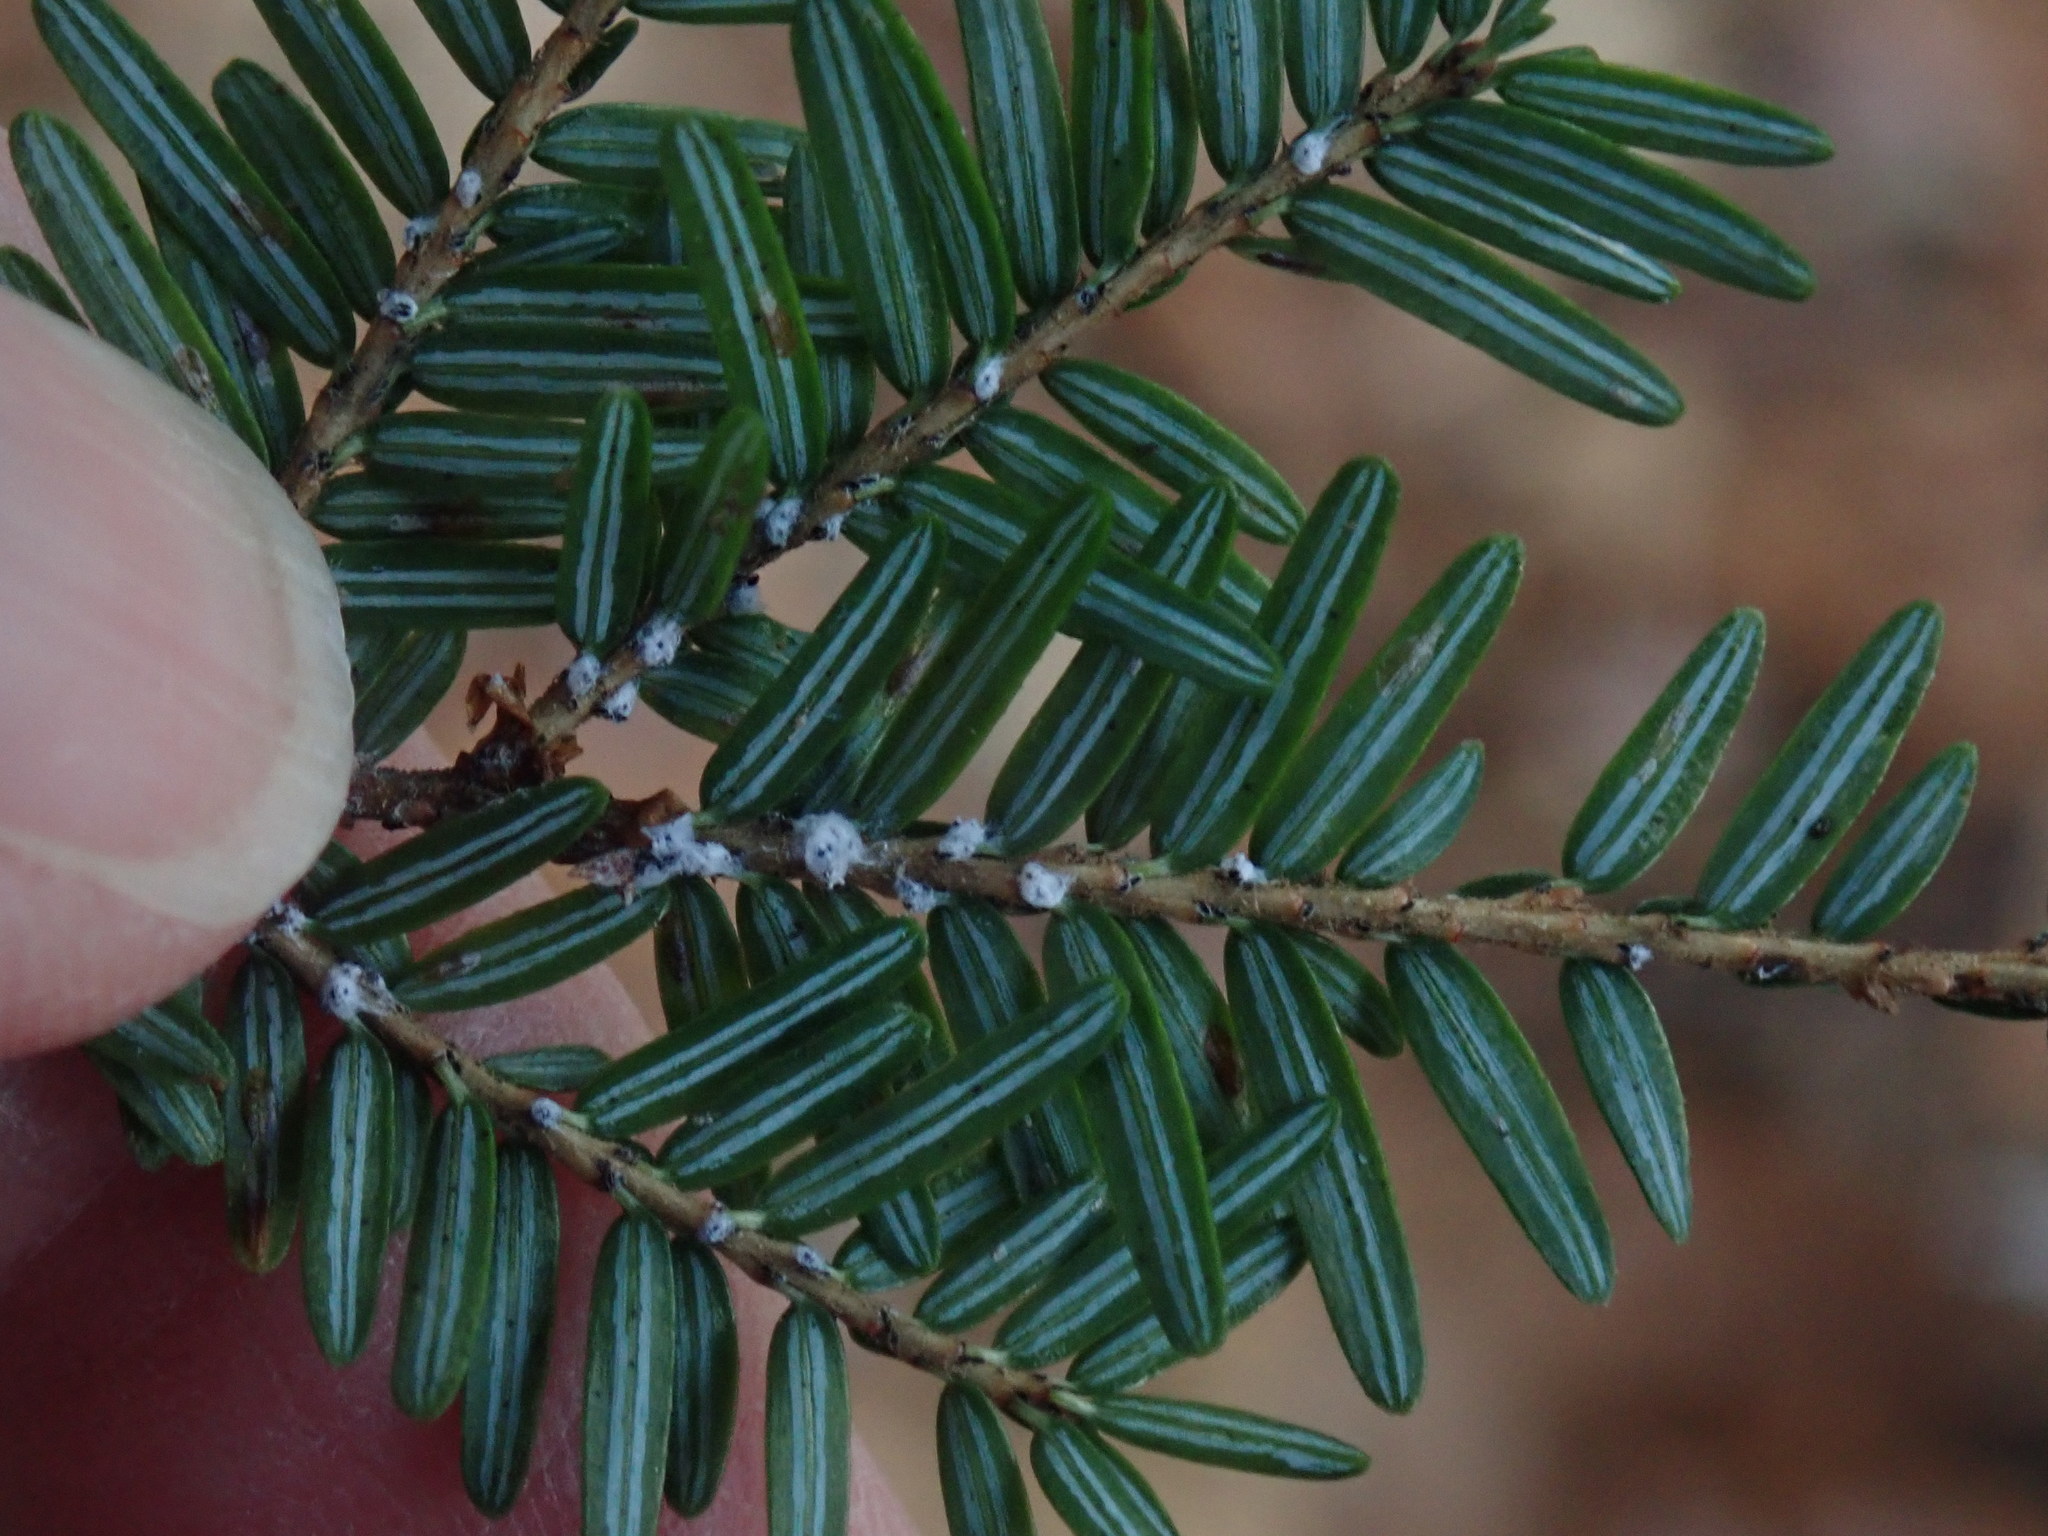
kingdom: Animalia
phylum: Arthropoda
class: Insecta
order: Hemiptera
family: Adelgidae
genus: Adelges
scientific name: Adelges tsugae
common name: Hemlock woolly adelgid
